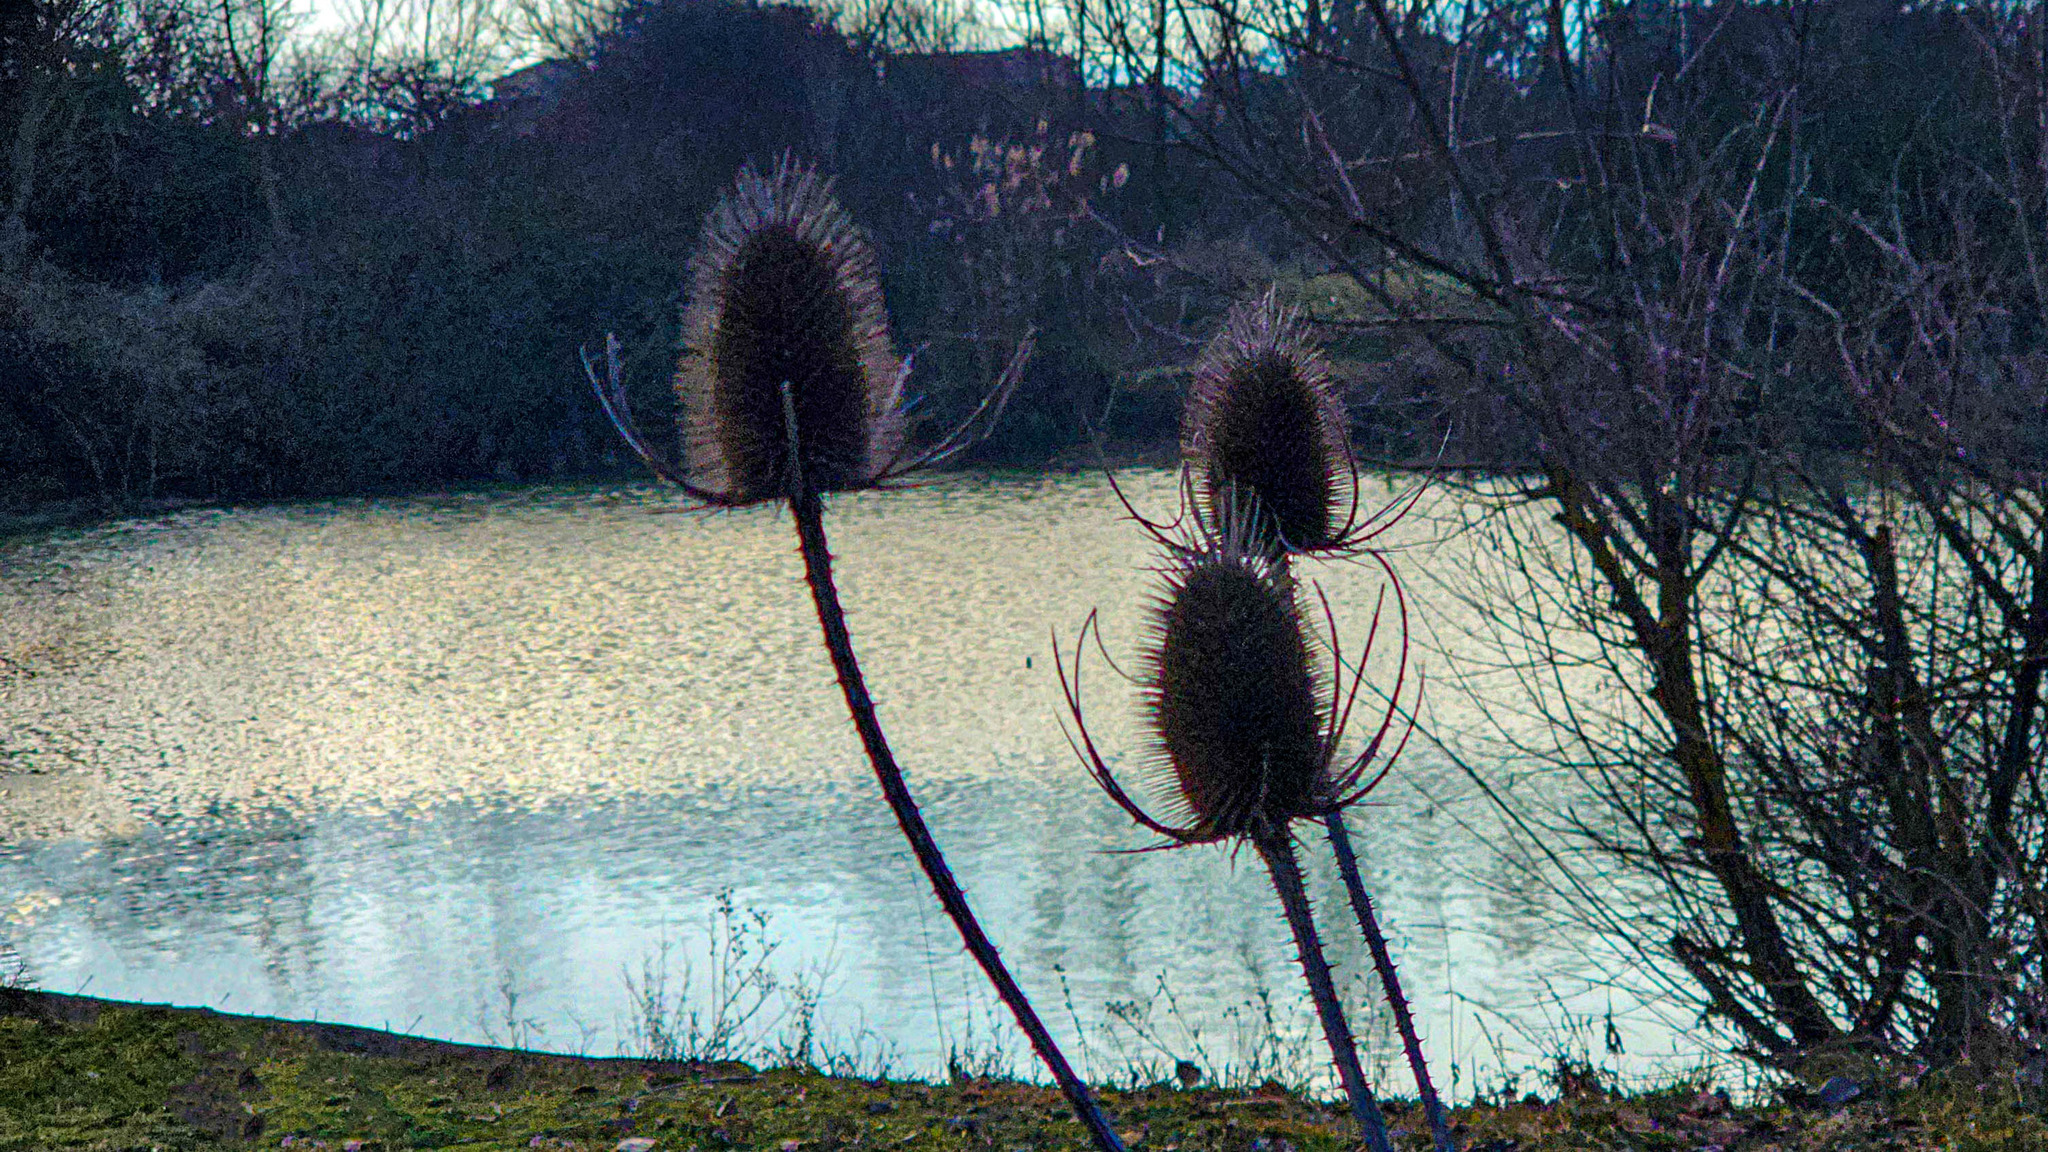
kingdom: Plantae
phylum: Tracheophyta
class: Magnoliopsida
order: Dipsacales
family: Caprifoliaceae
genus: Dipsacus
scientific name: Dipsacus fullonum
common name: Teasel
